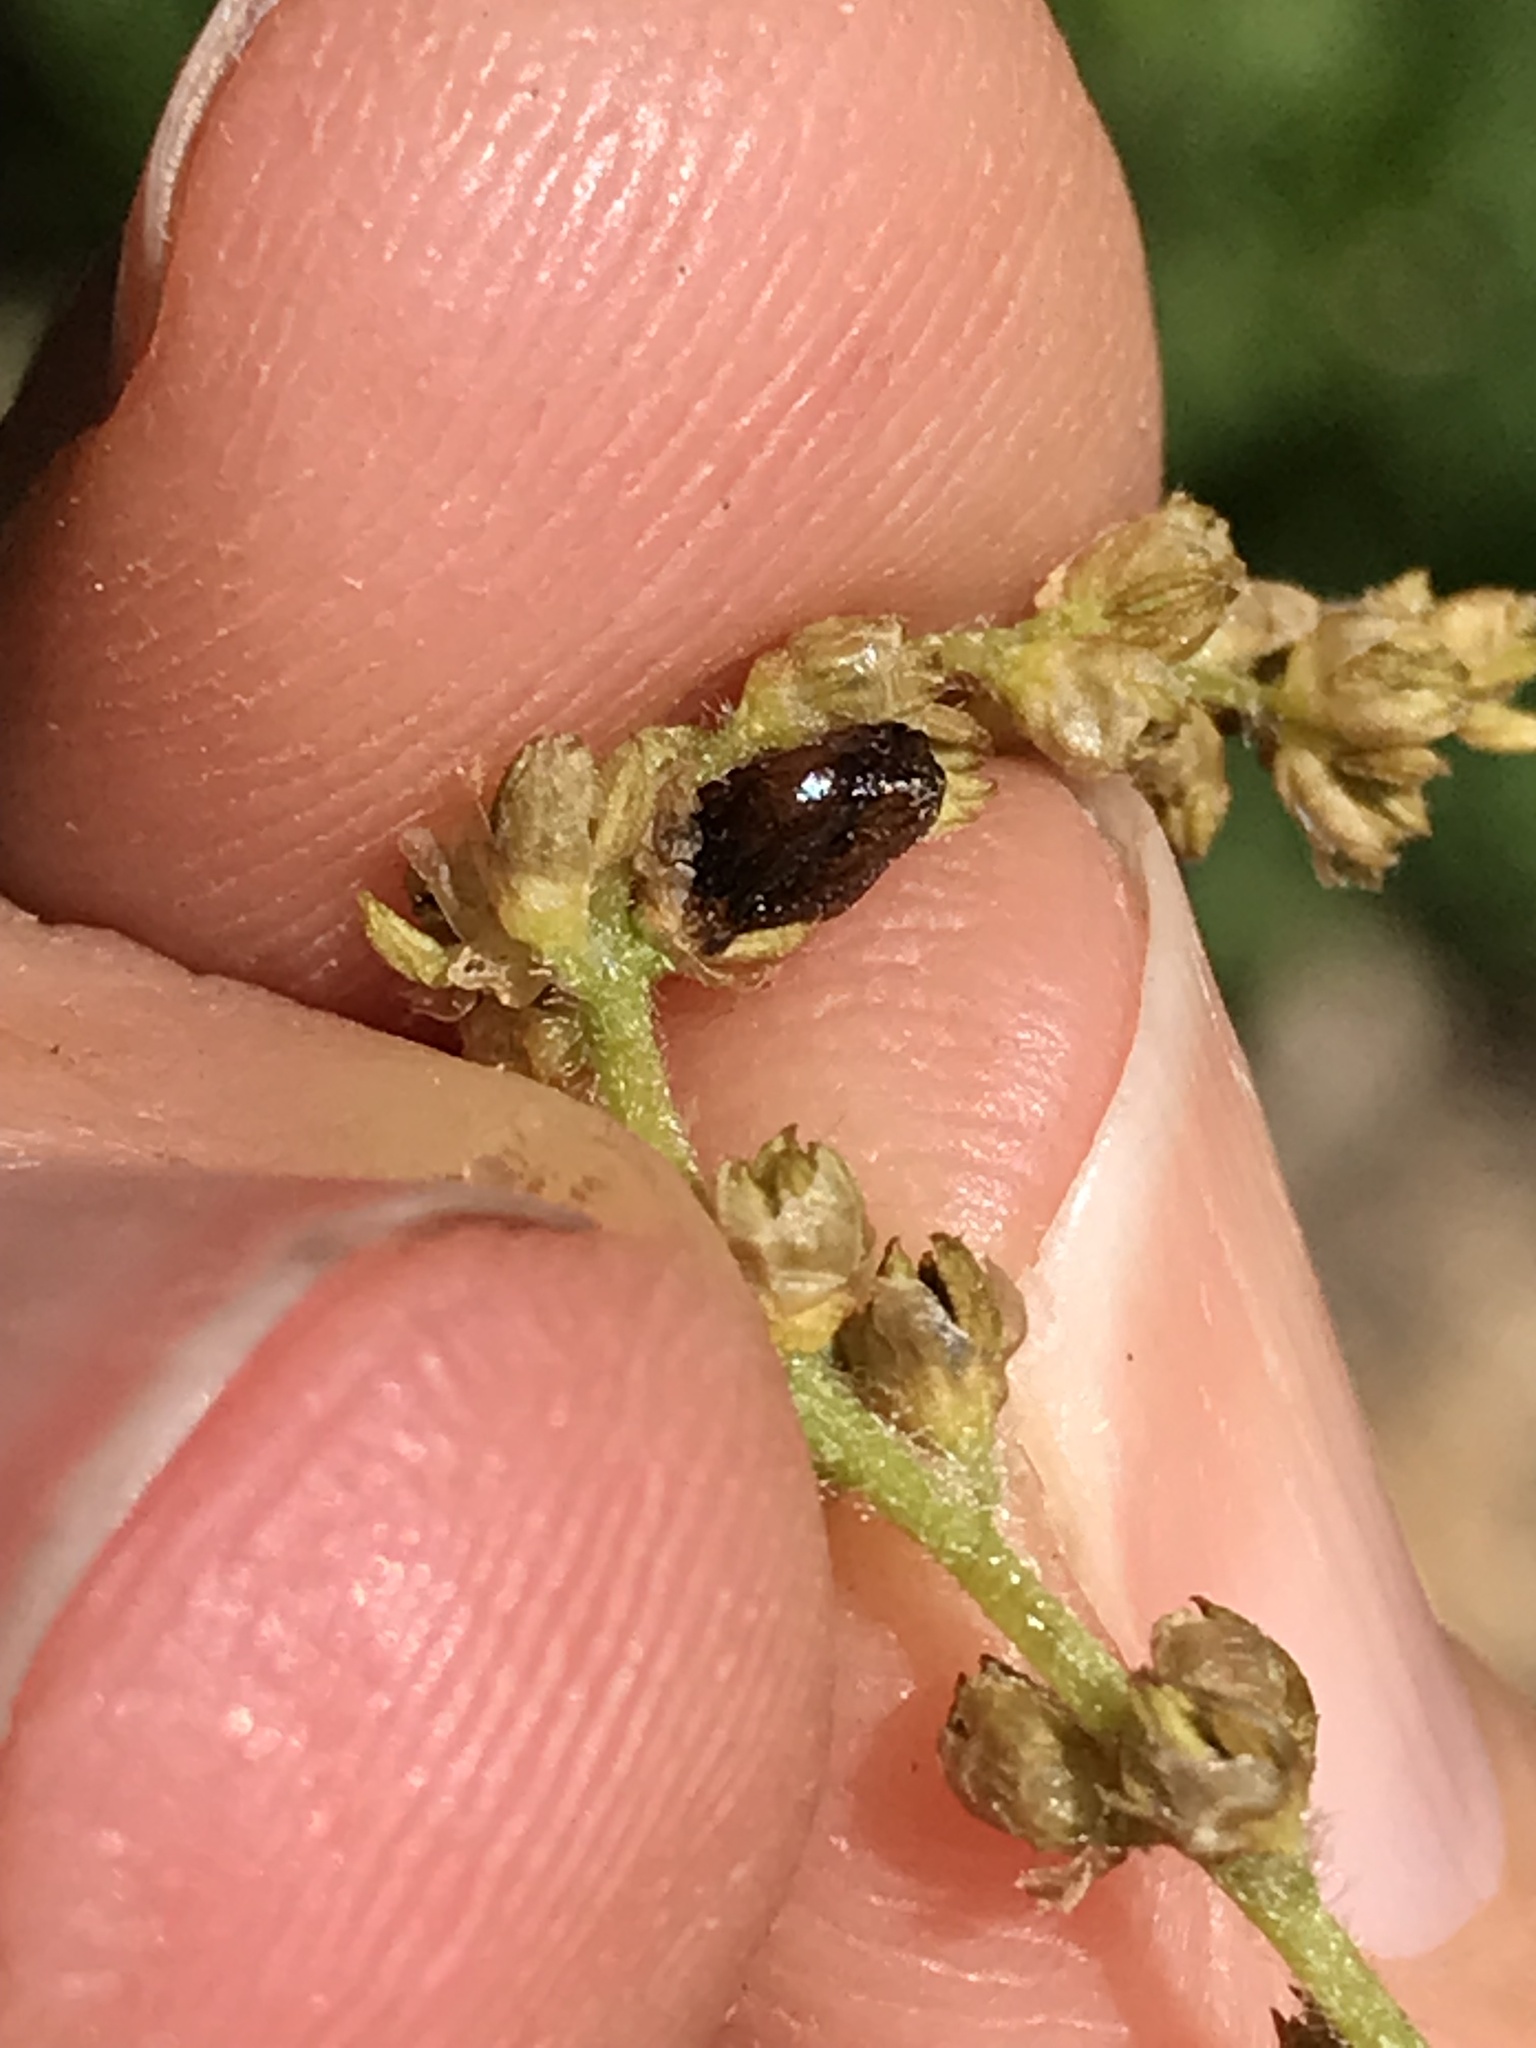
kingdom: Animalia
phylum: Arthropoda
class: Insecta
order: Hymenoptera
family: Cynipidae
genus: Dryocosmus
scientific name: Dryocosmus
